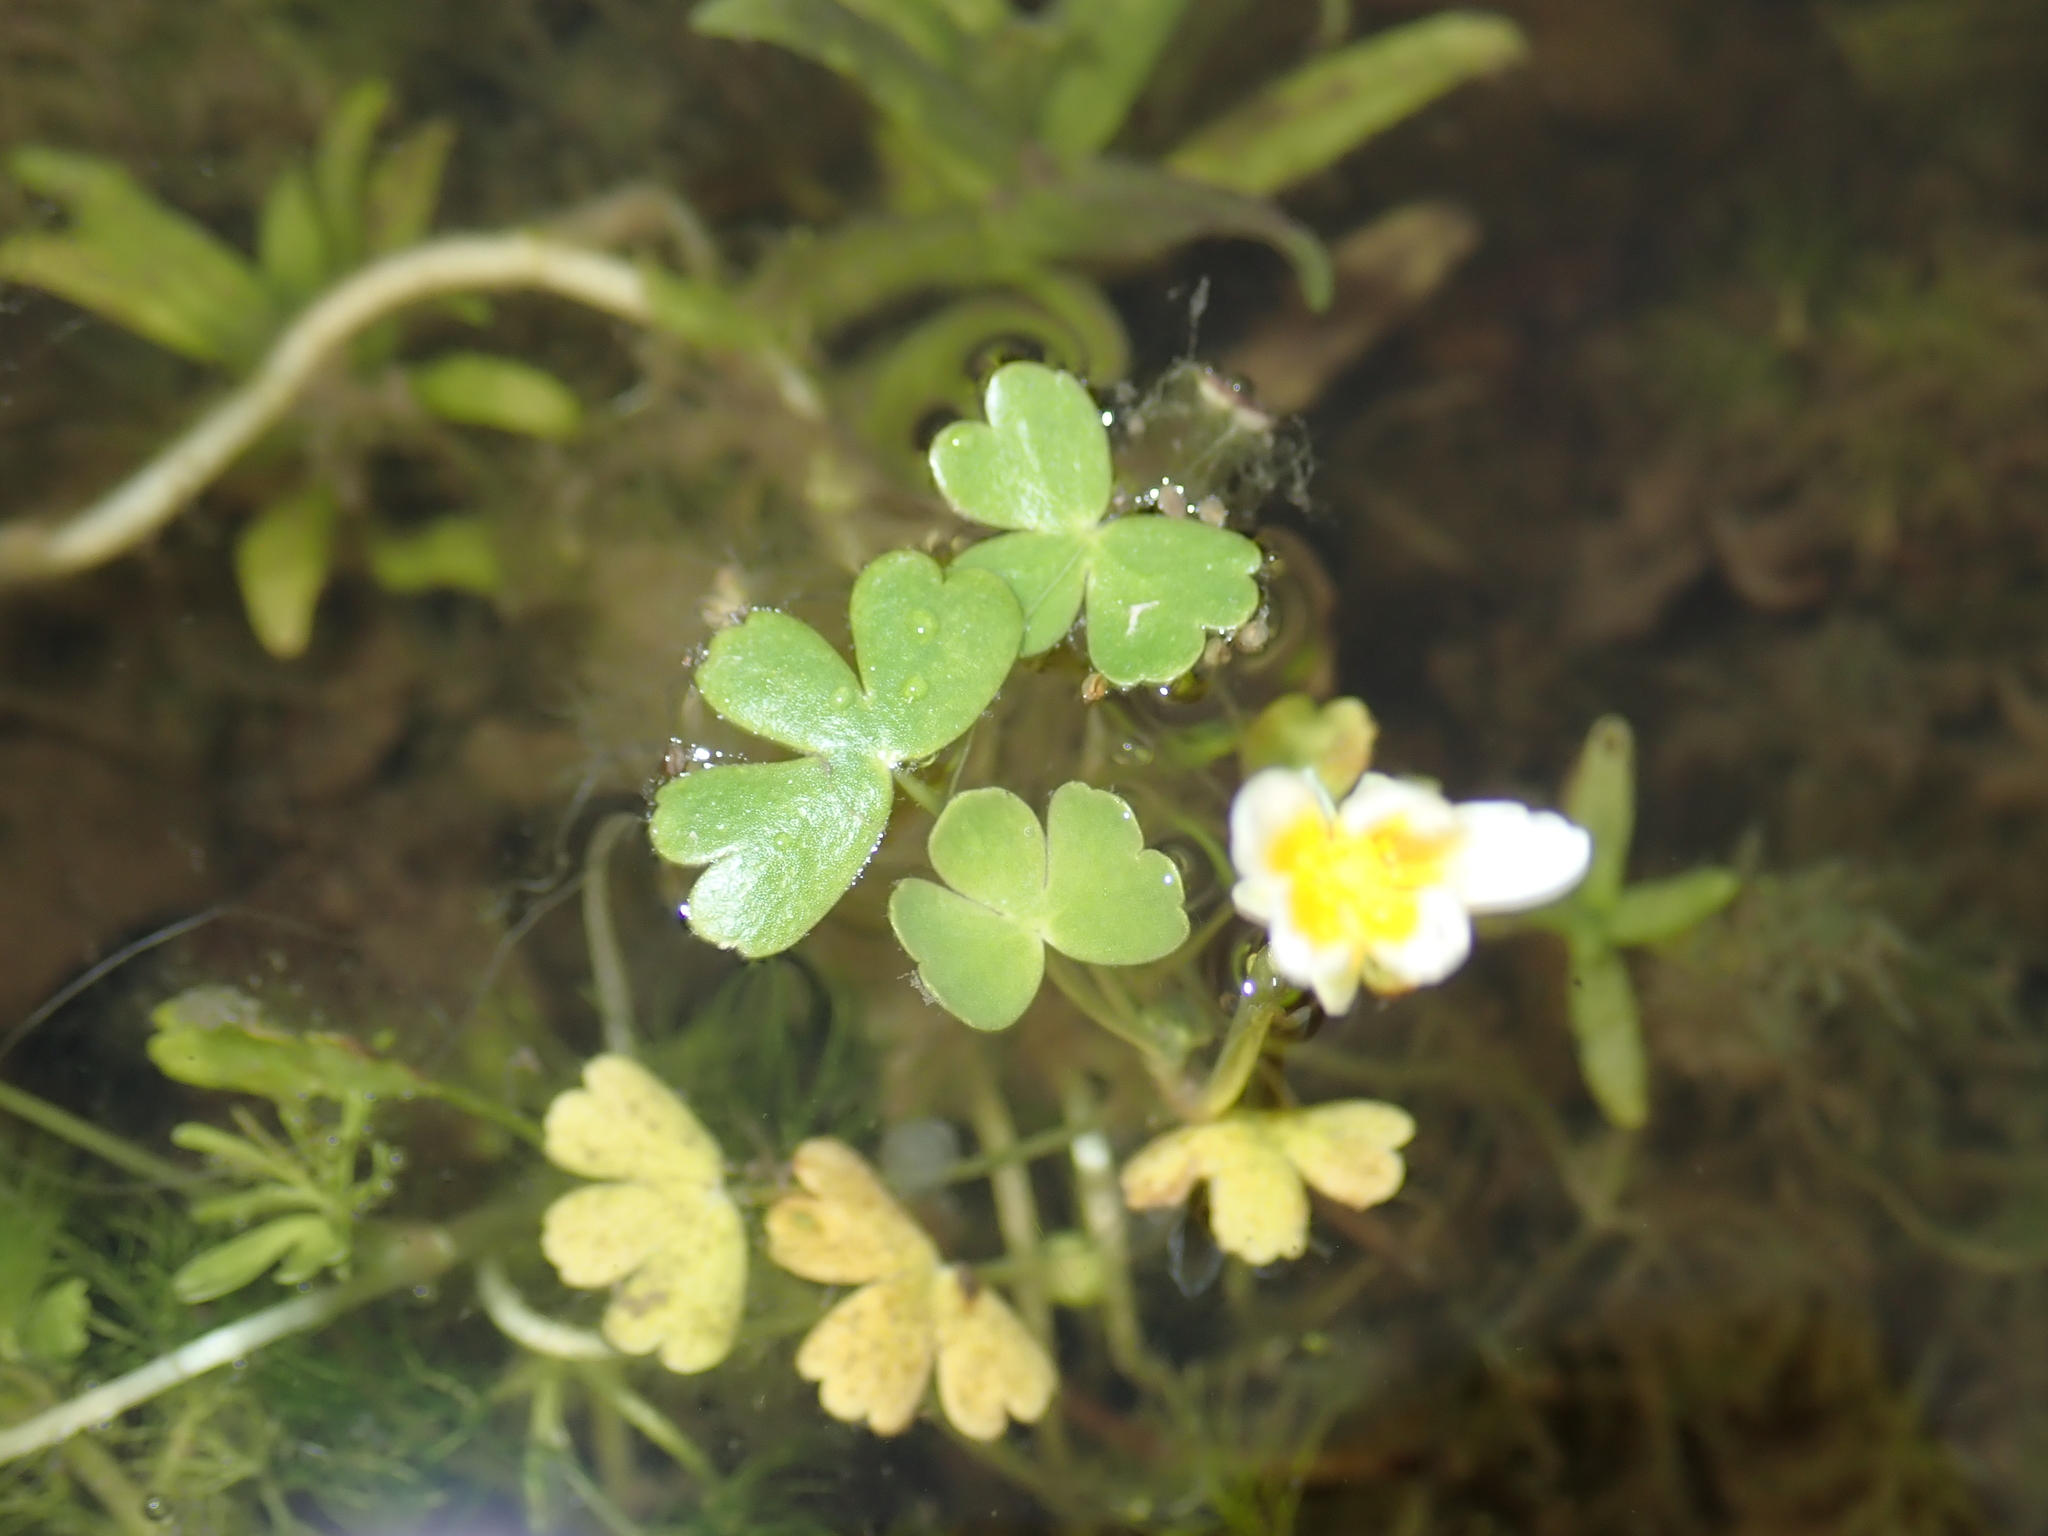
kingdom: Plantae
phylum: Tracheophyta
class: Magnoliopsida
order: Ranunculales
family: Ranunculaceae
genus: Ranunculus
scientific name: Ranunculus peltatus
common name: Pond water-crowfoot
